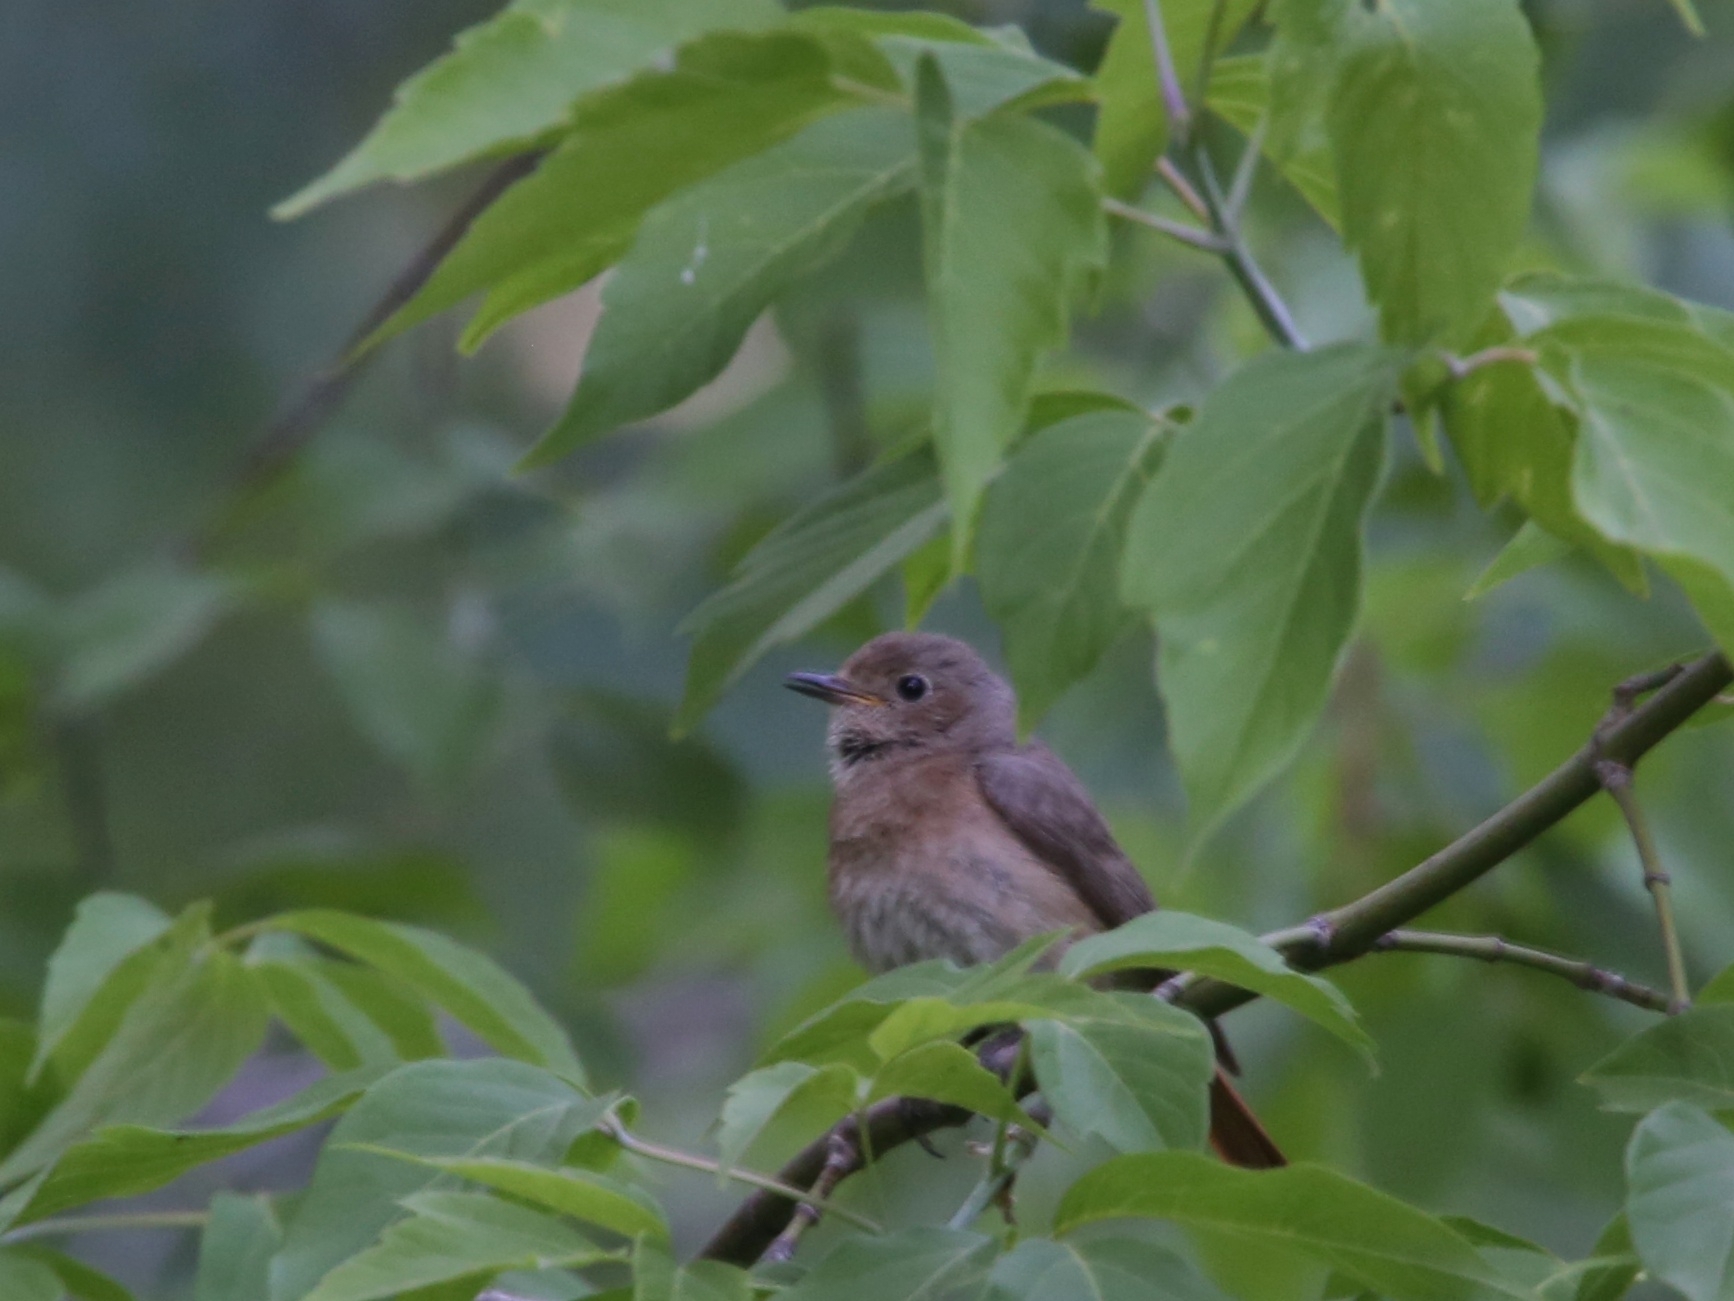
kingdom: Animalia
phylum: Chordata
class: Aves
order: Passeriformes
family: Muscicapidae
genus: Phoenicurus
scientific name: Phoenicurus phoenicurus
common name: Common redstart
